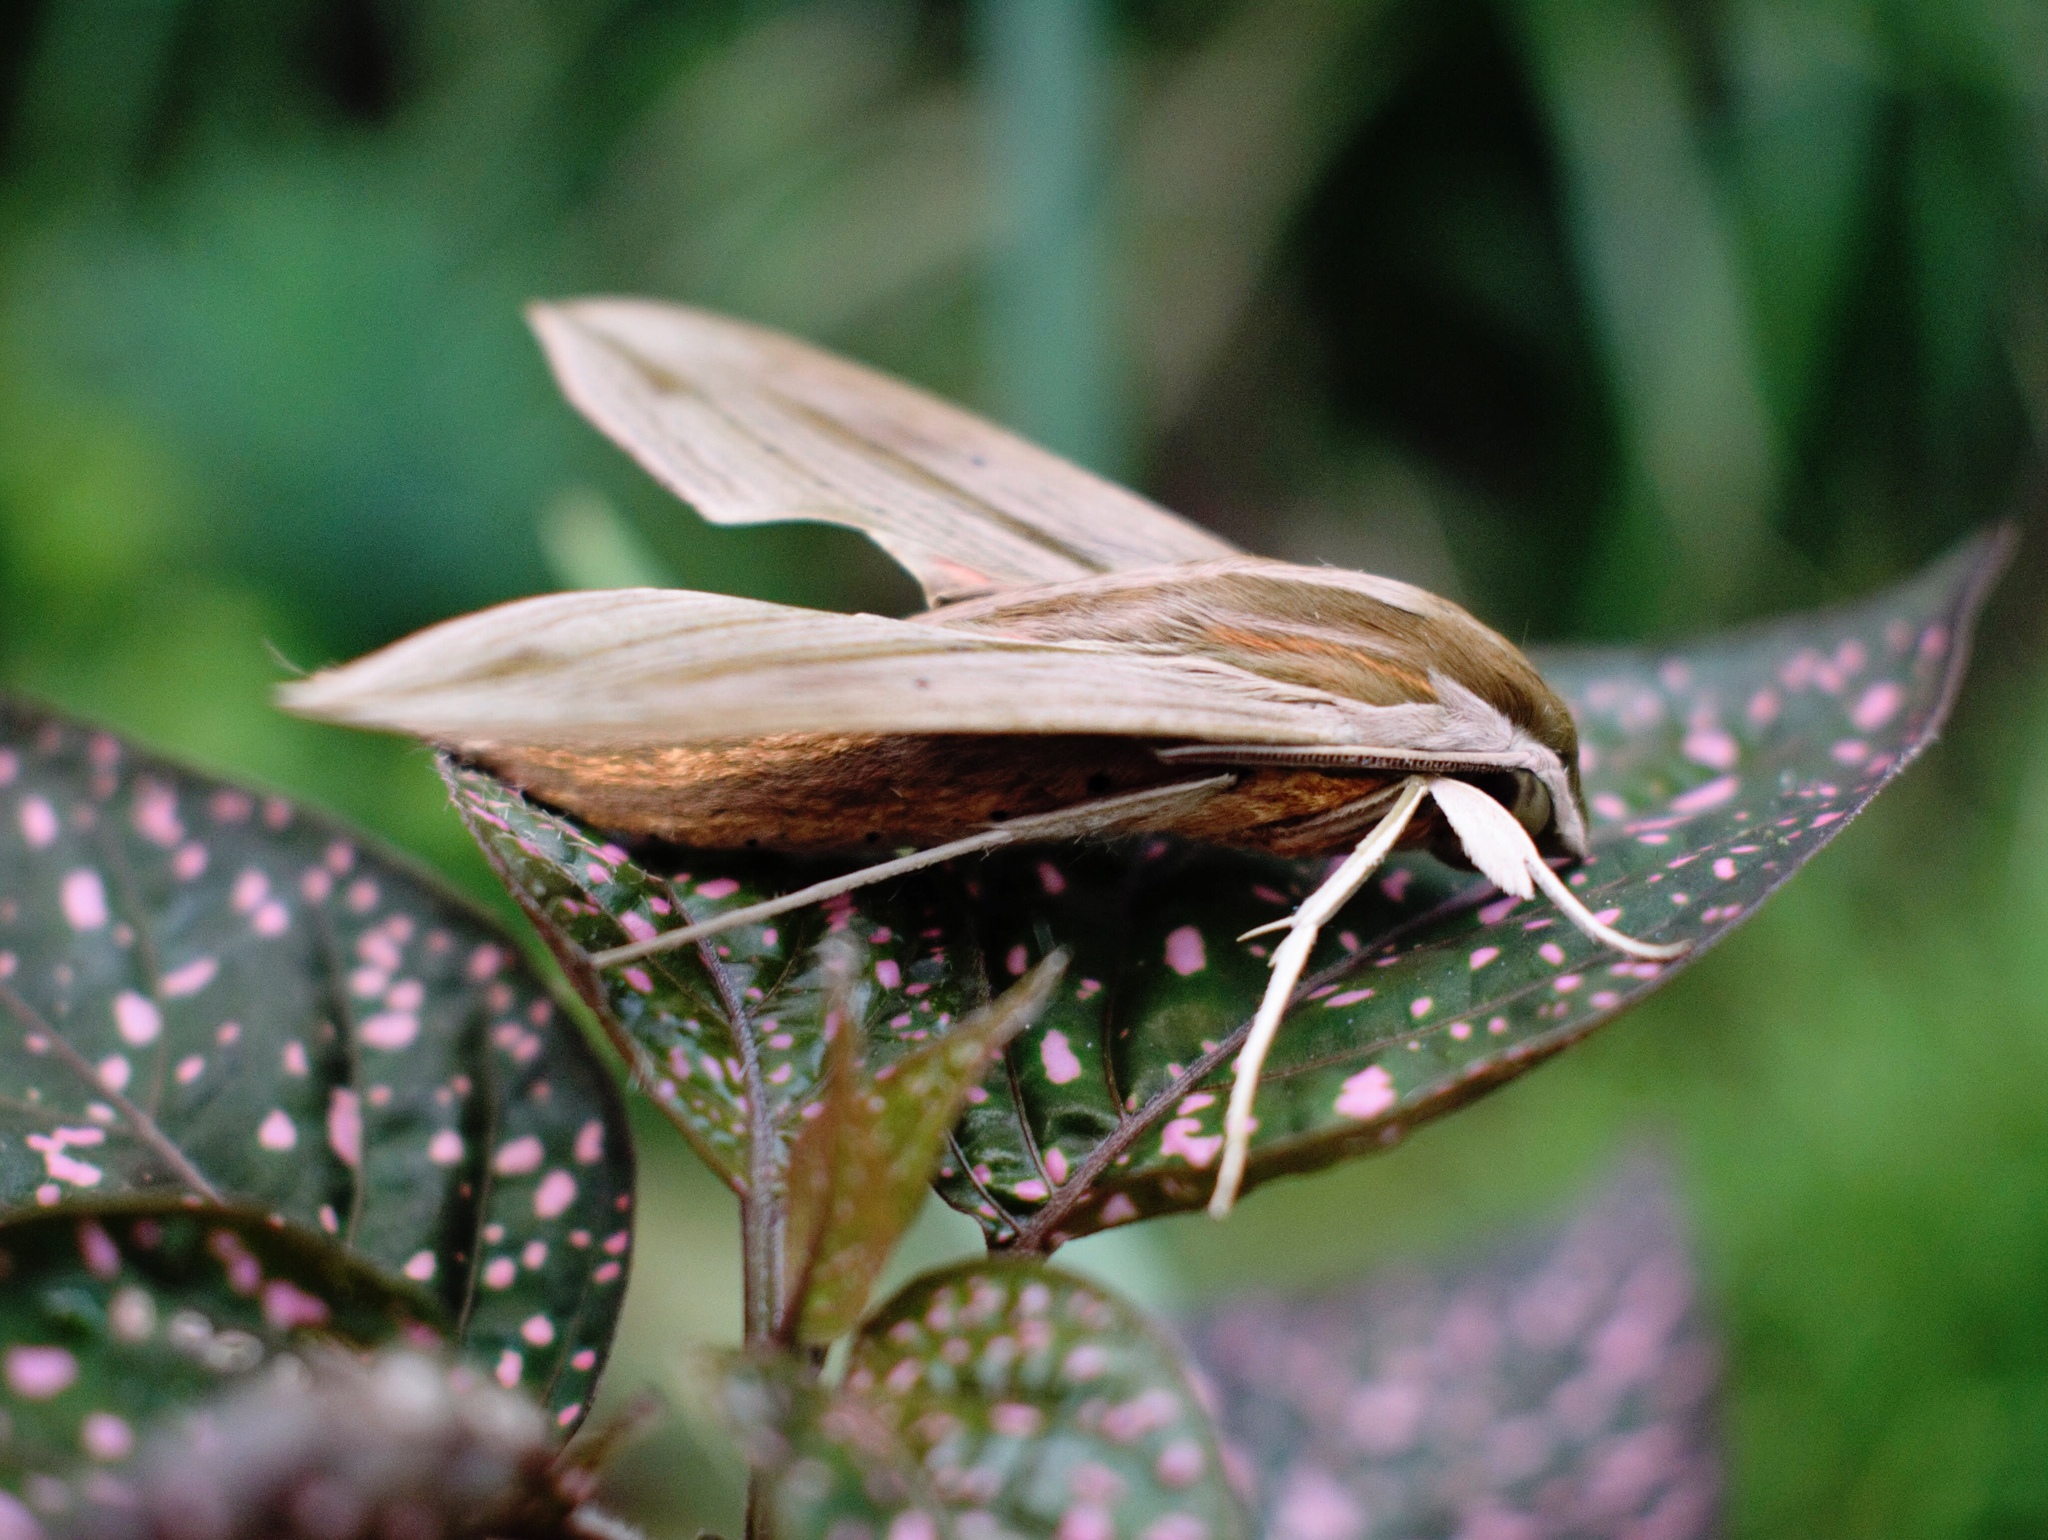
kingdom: Animalia
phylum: Arthropoda
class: Insecta
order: Lepidoptera
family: Sphingidae
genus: Hippotion
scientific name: Hippotion eson
